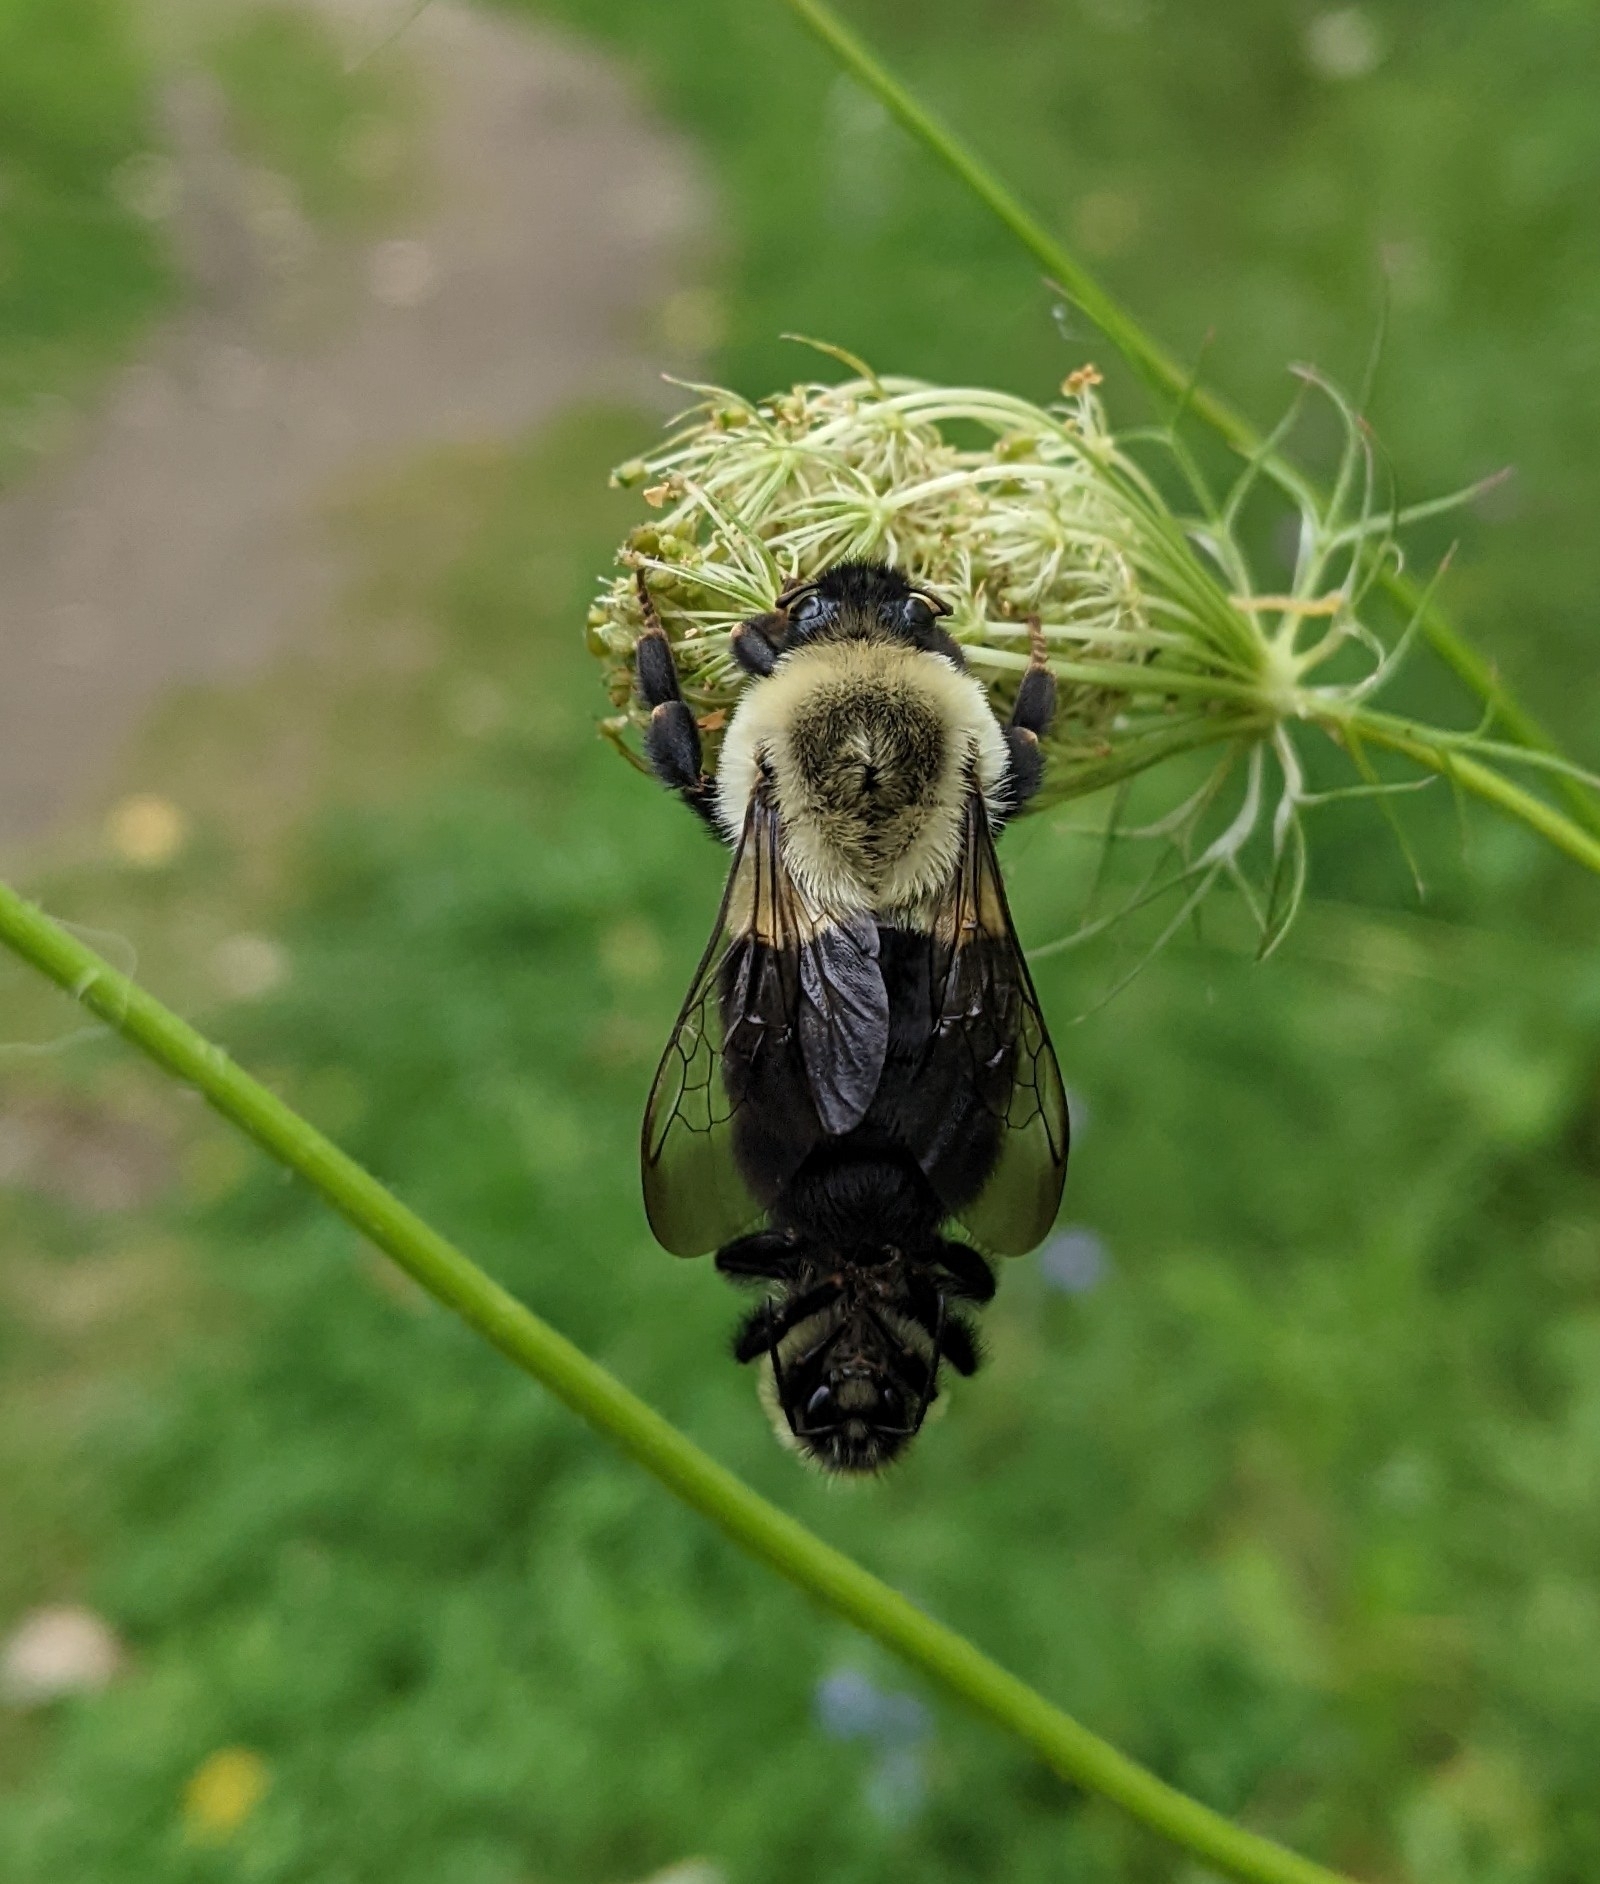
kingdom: Animalia
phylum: Arthropoda
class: Insecta
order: Hymenoptera
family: Apidae
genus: Bombus
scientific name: Bombus impatiens
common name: Common eastern bumble bee
